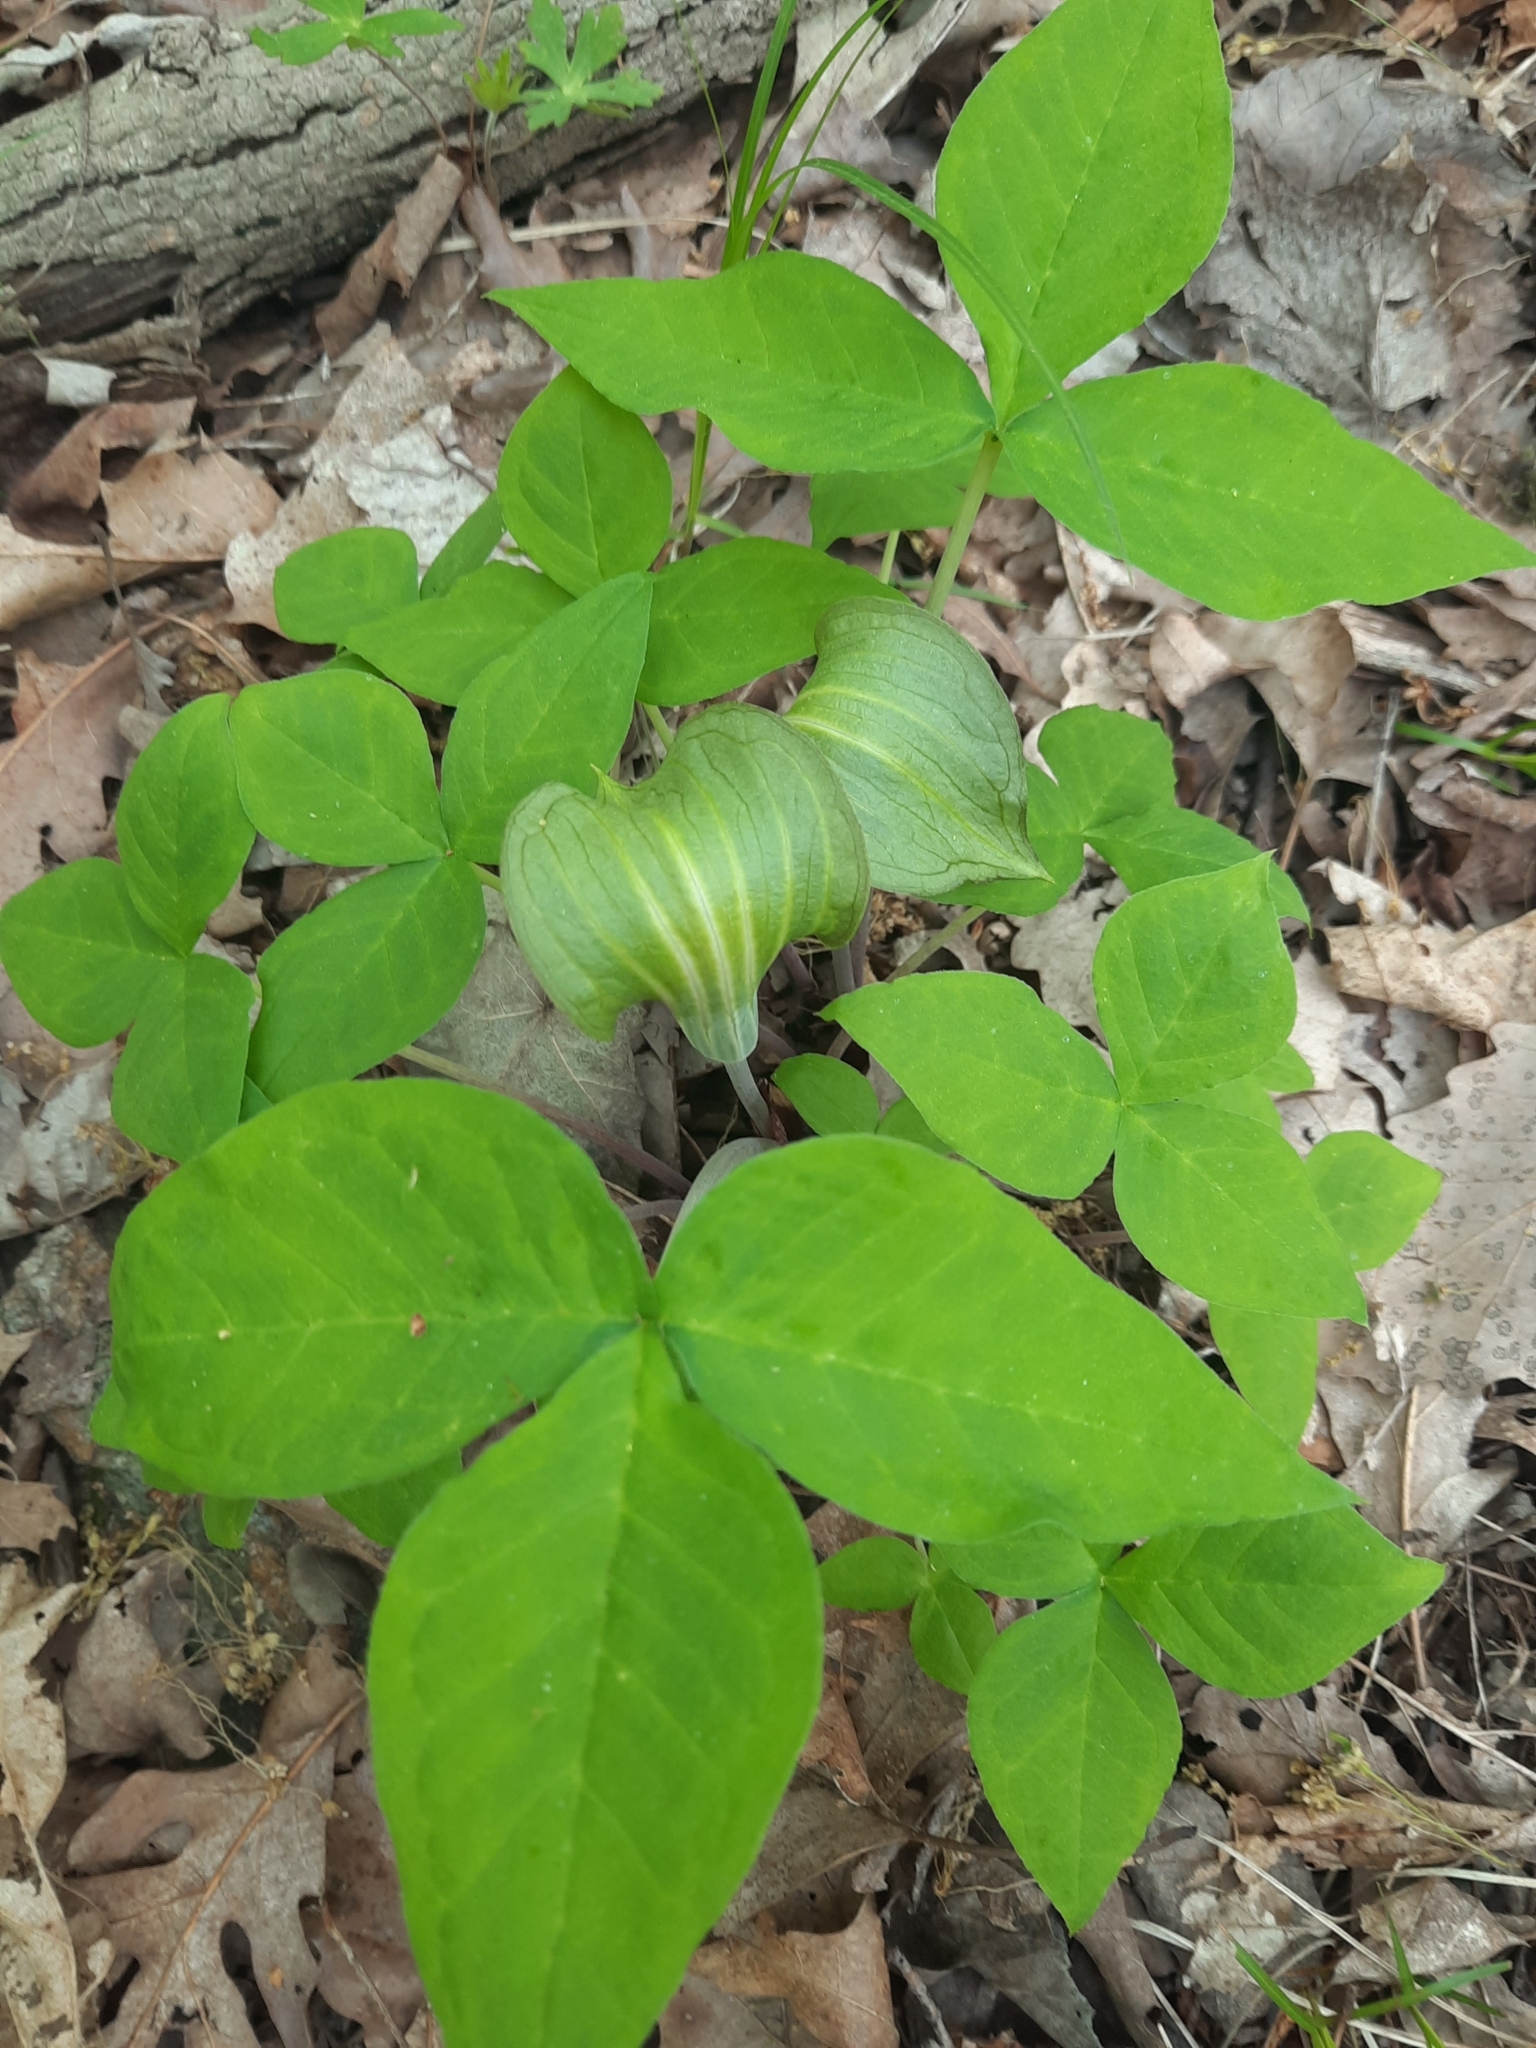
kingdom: Plantae
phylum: Tracheophyta
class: Liliopsida
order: Alismatales
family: Araceae
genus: Arisaema
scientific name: Arisaema triphyllum
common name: Jack-in-the-pulpit
